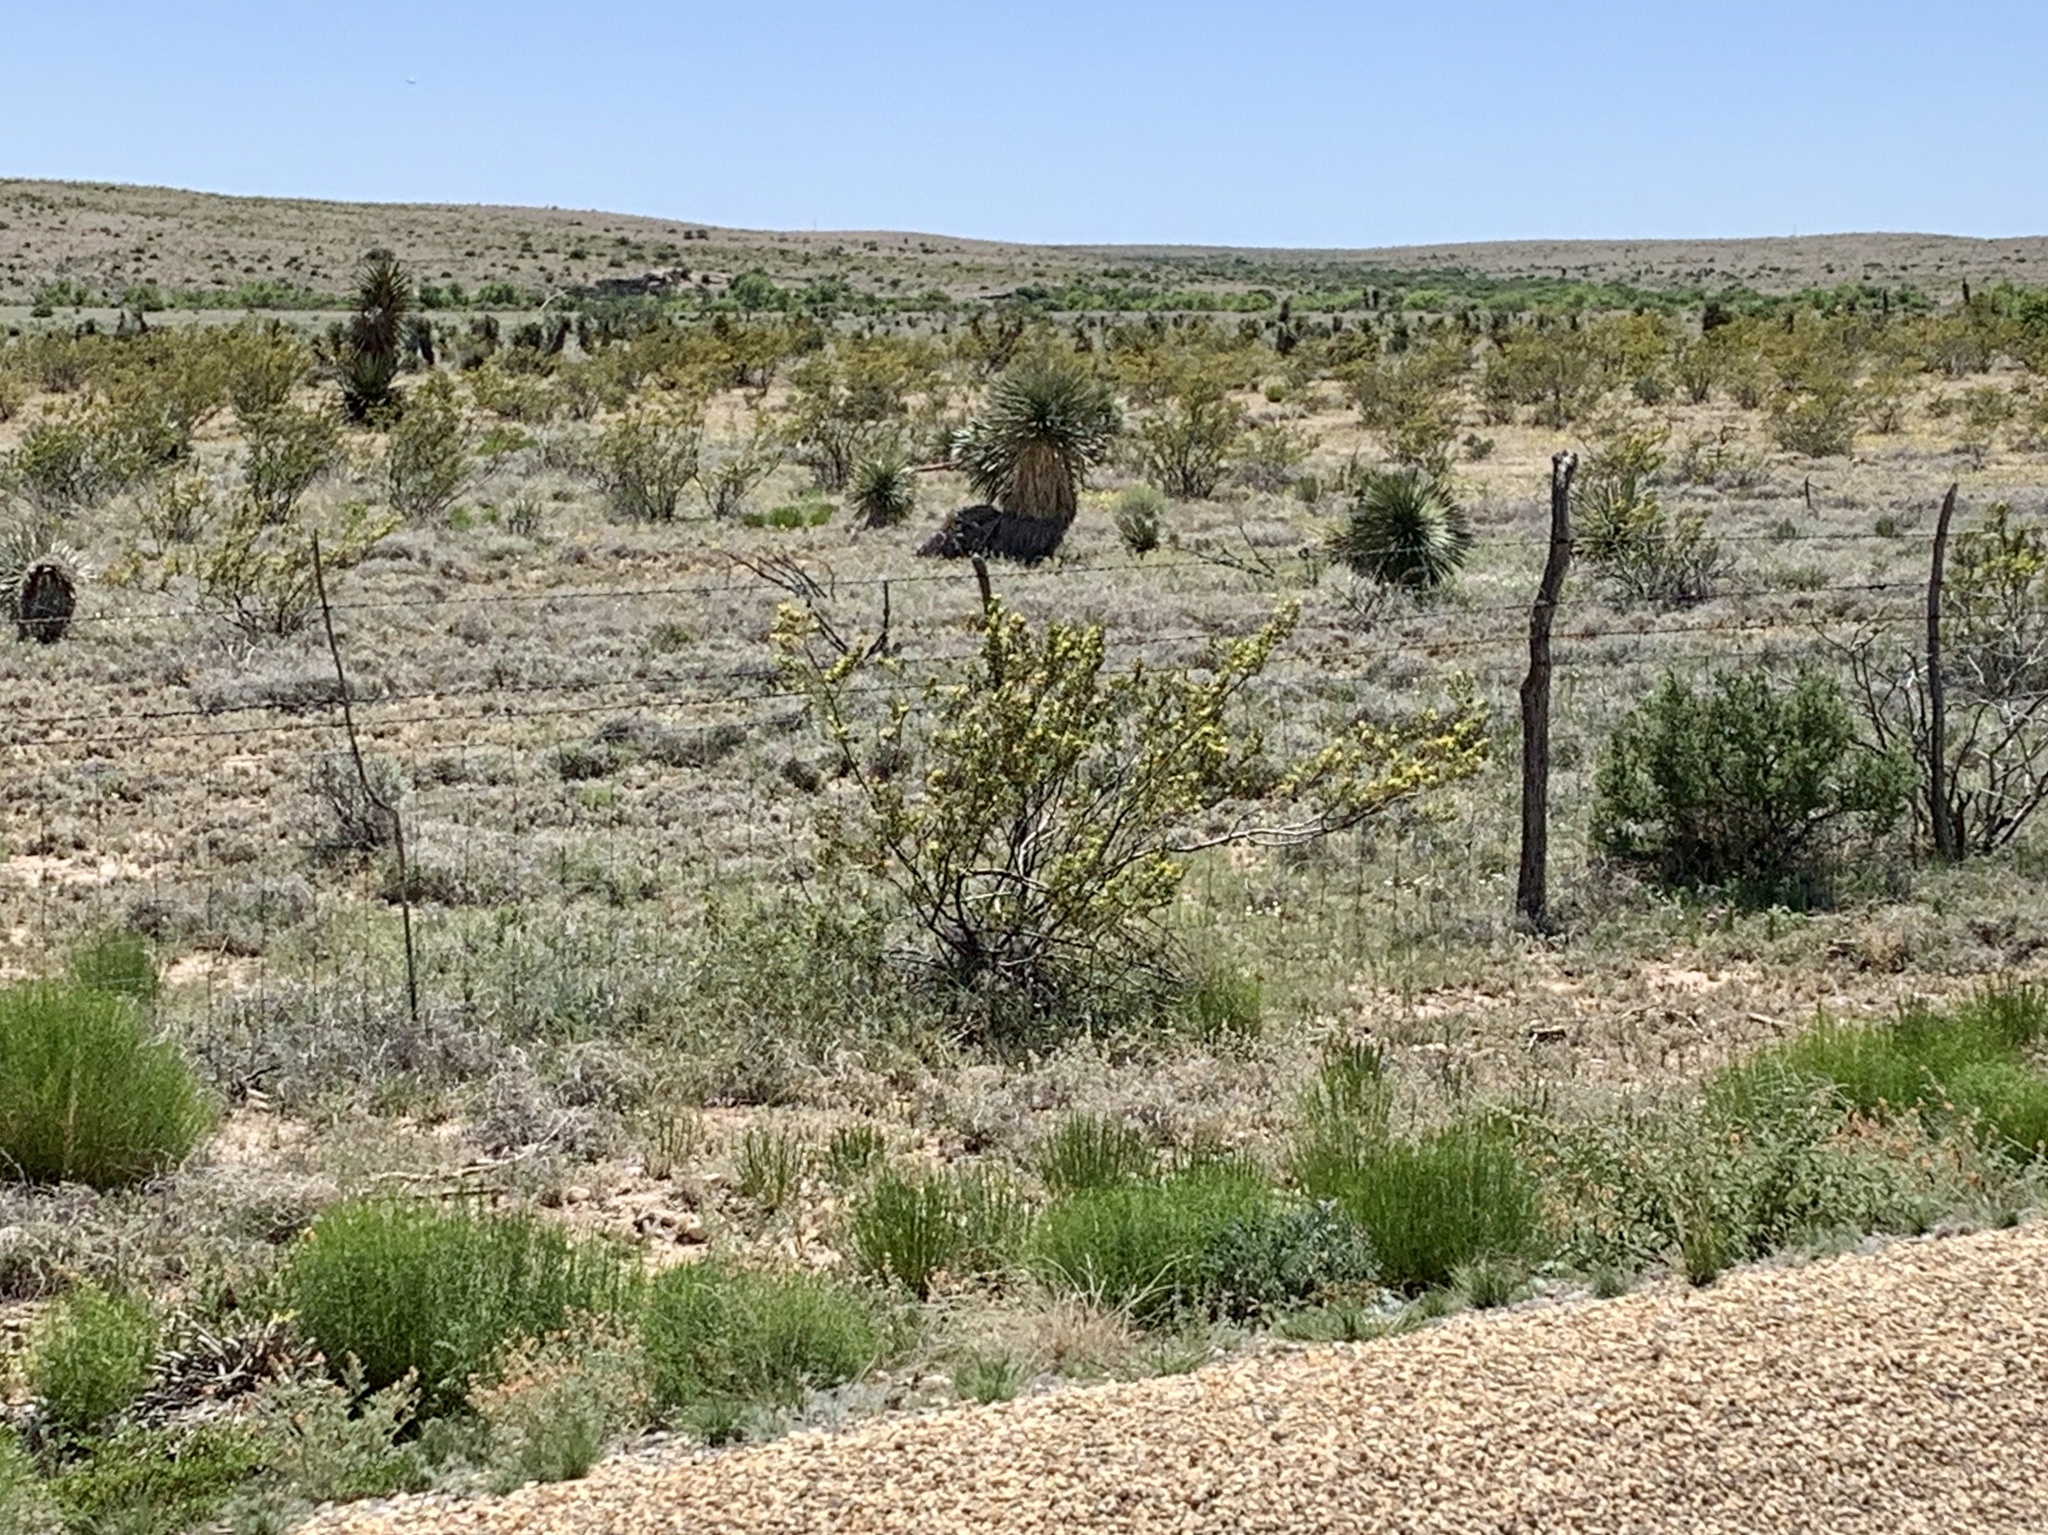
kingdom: Plantae
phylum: Tracheophyta
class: Magnoliopsida
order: Zygophyllales
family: Zygophyllaceae
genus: Larrea
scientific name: Larrea tridentata
